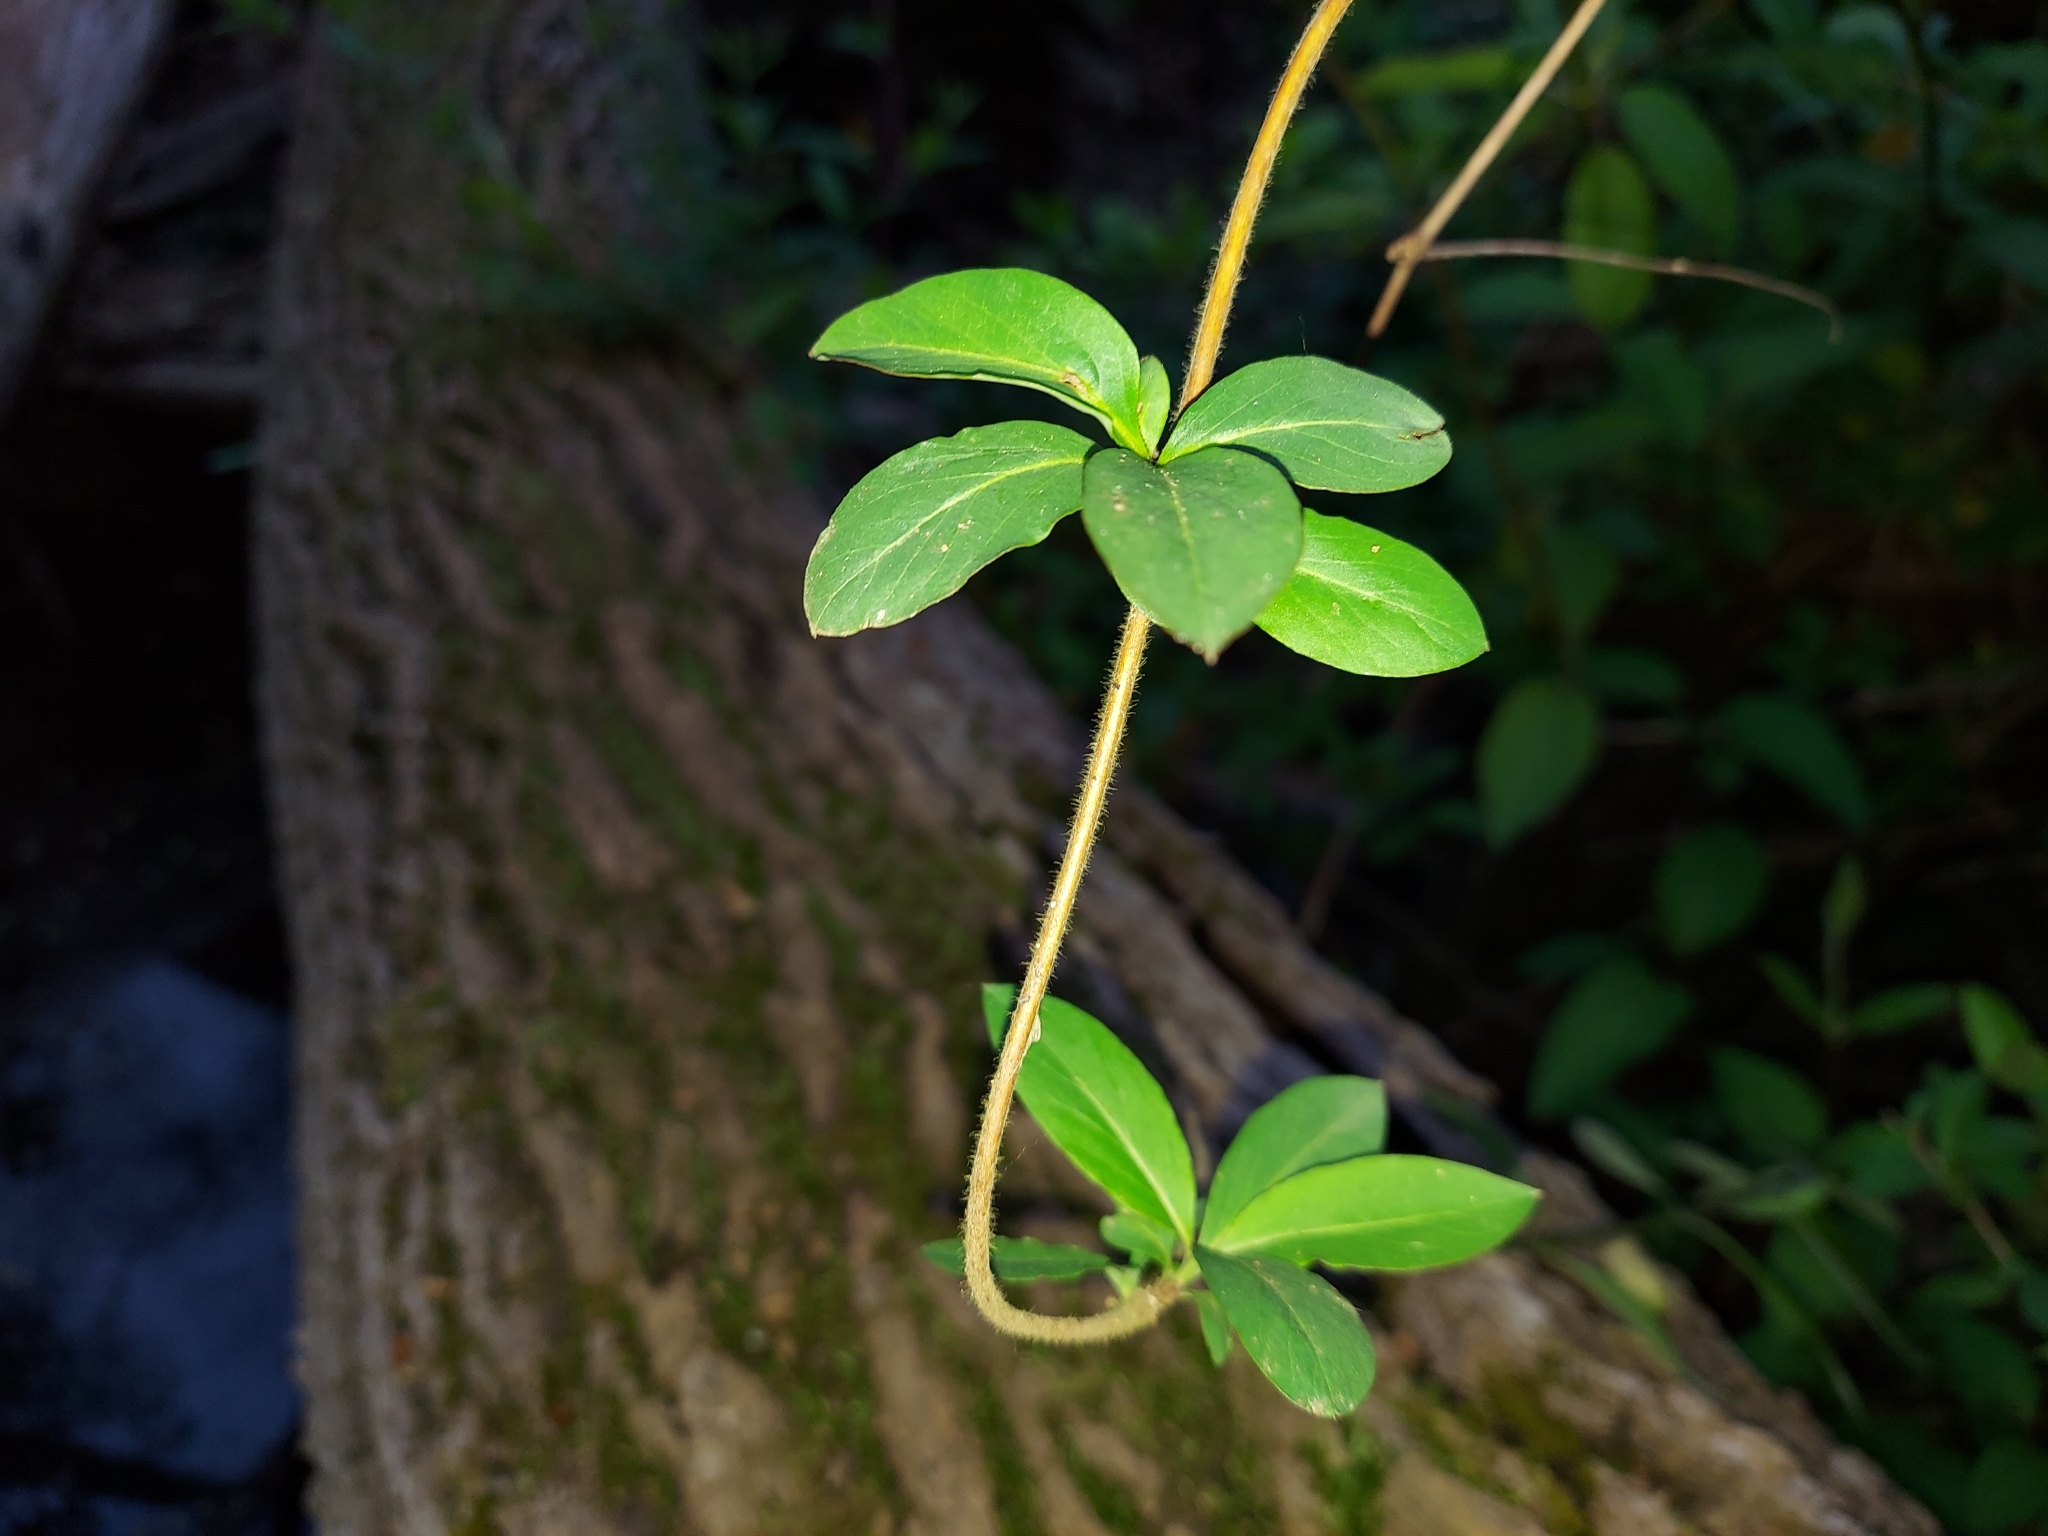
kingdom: Plantae
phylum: Tracheophyta
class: Magnoliopsida
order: Dipsacales
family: Caprifoliaceae
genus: Lonicera
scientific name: Lonicera japonica
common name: Japanese honeysuckle
